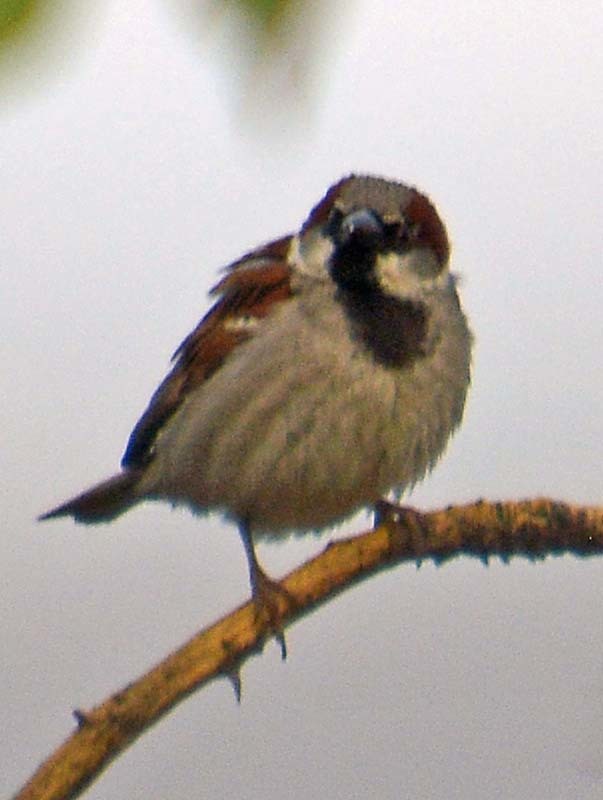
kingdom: Animalia
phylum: Chordata
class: Aves
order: Passeriformes
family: Passeridae
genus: Passer
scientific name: Passer domesticus
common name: House sparrow
